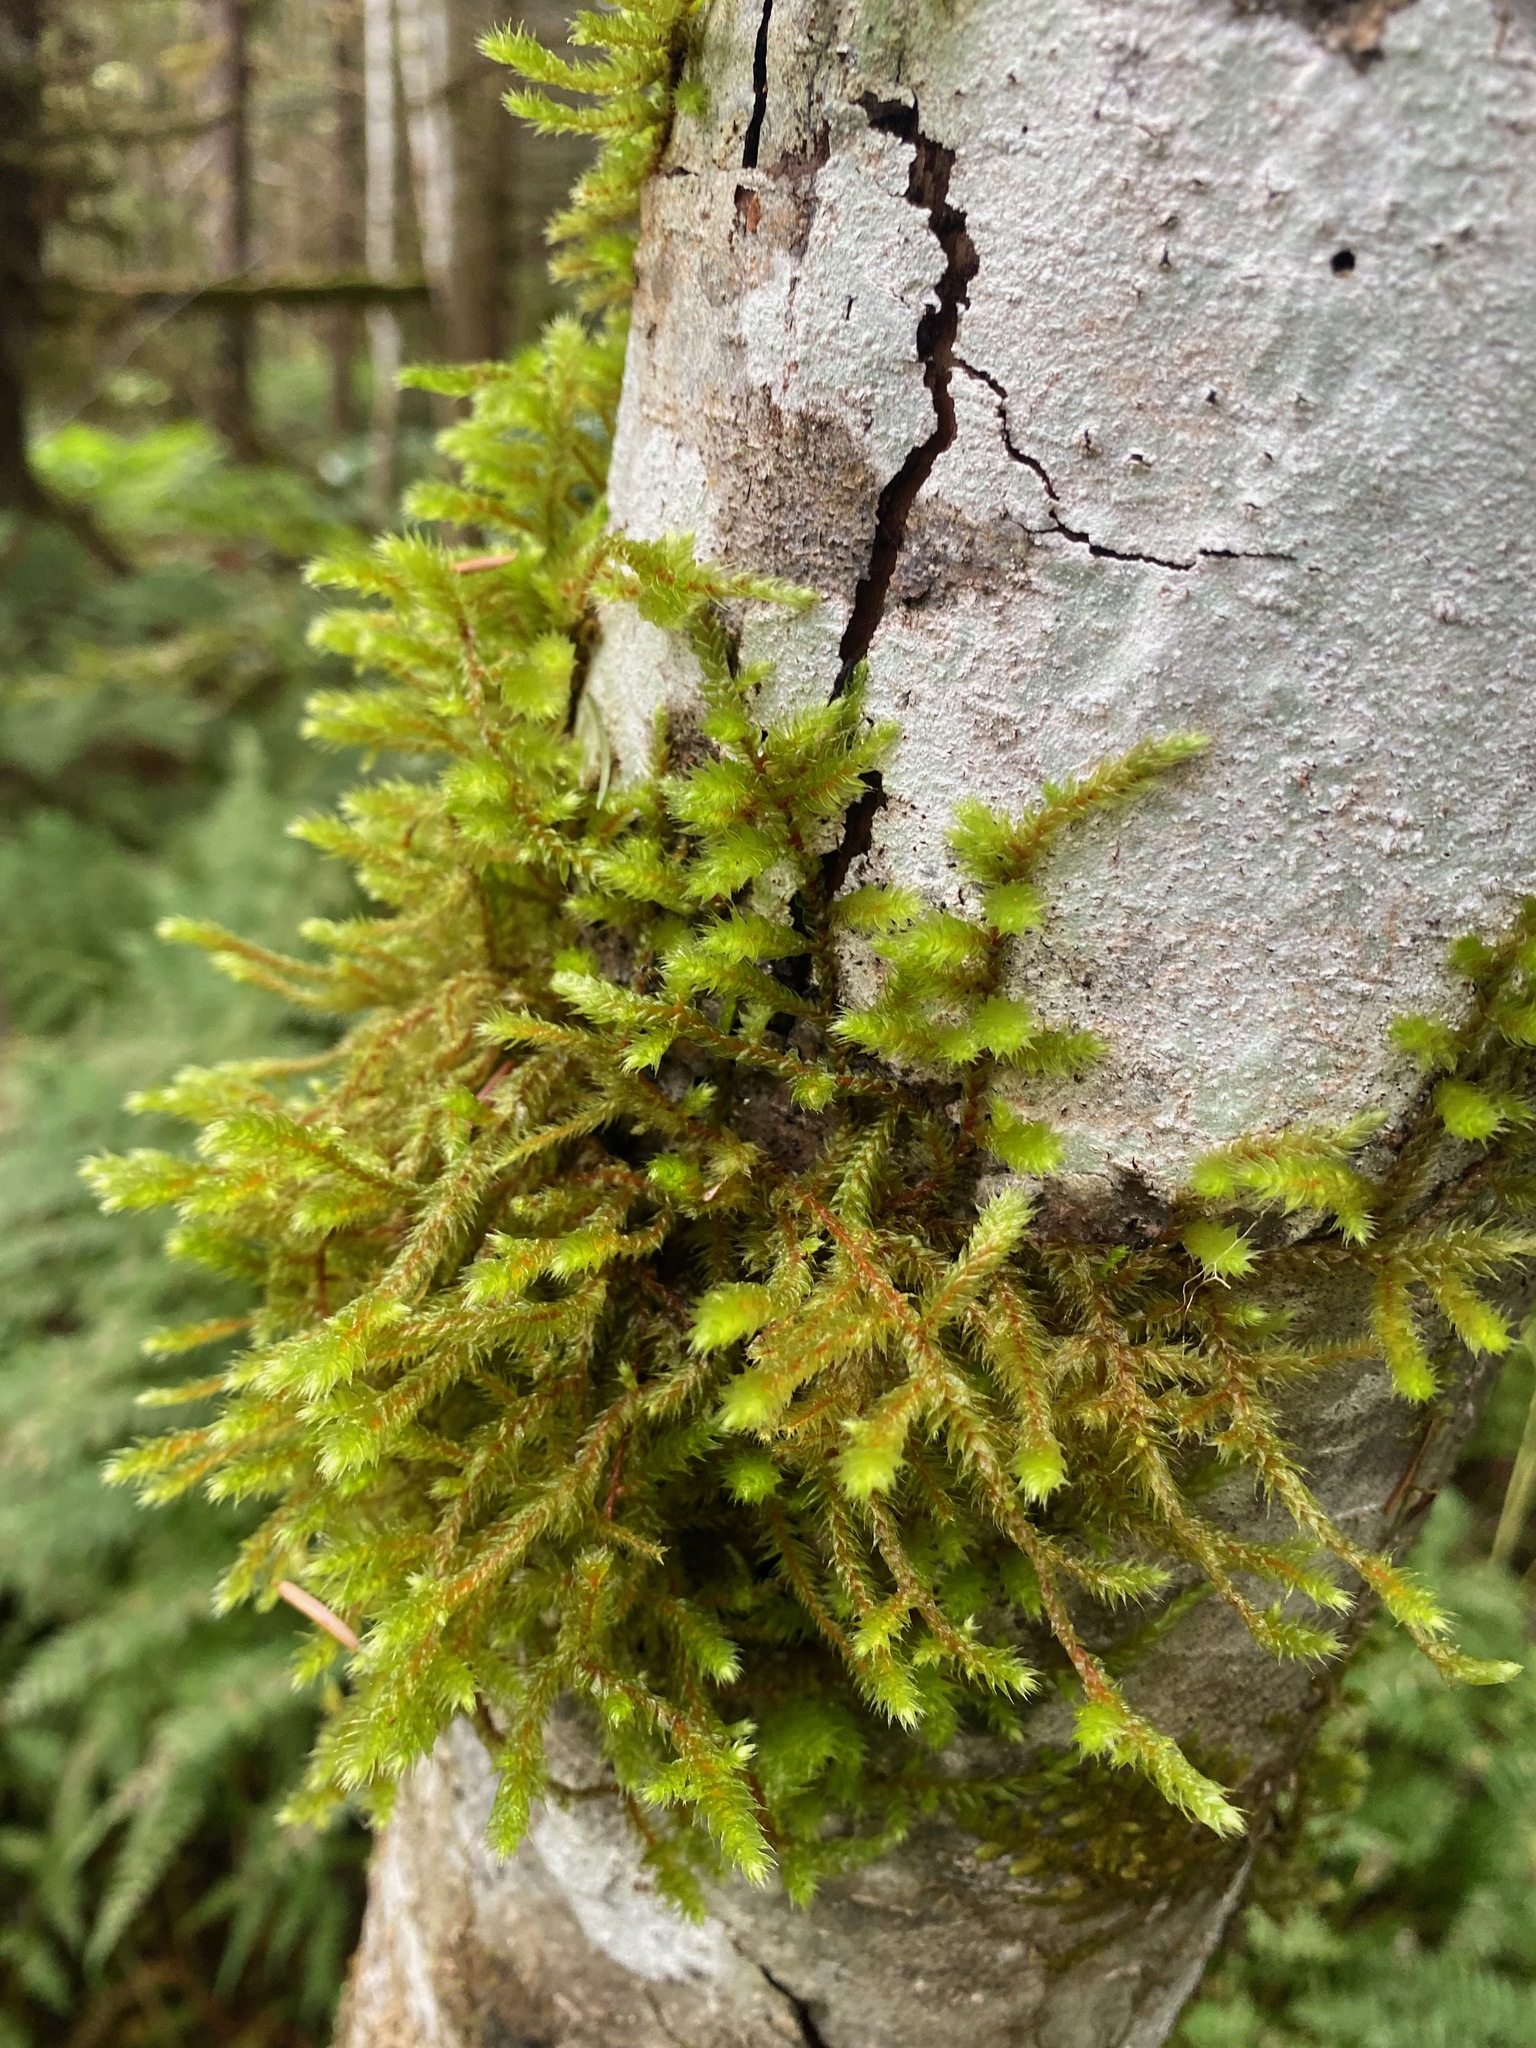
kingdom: Plantae
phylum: Bryophyta
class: Bryopsida
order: Hypnales
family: Antitrichiaceae
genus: Antitrichia
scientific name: Antitrichia curtipendula
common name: Pendulous wing-moss
